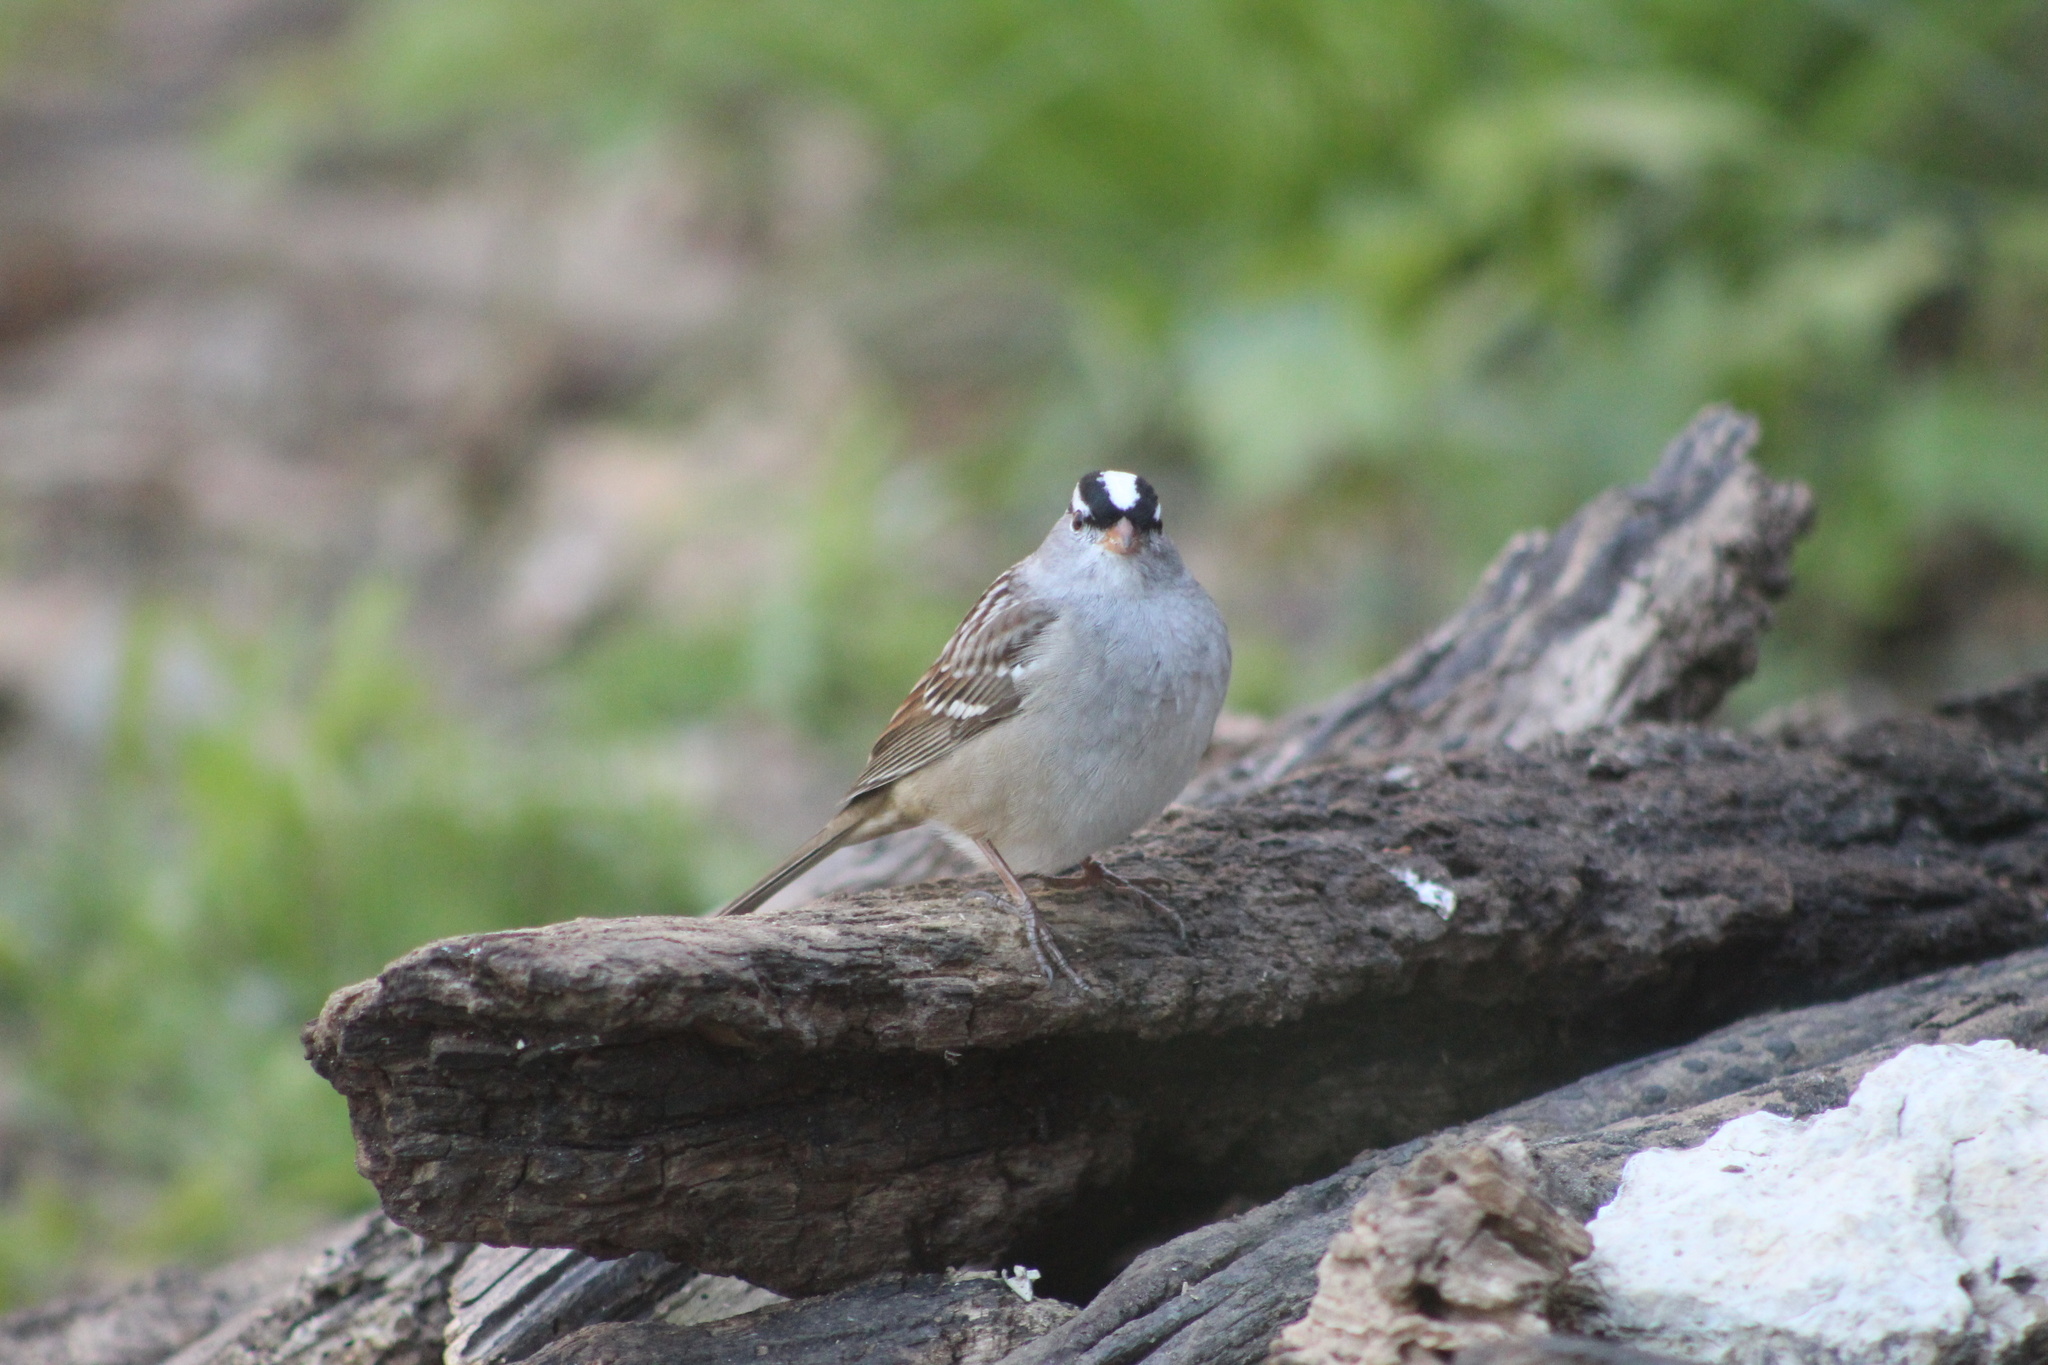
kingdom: Animalia
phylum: Chordata
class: Aves
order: Passeriformes
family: Passerellidae
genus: Zonotrichia
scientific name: Zonotrichia leucophrys
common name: White-crowned sparrow
